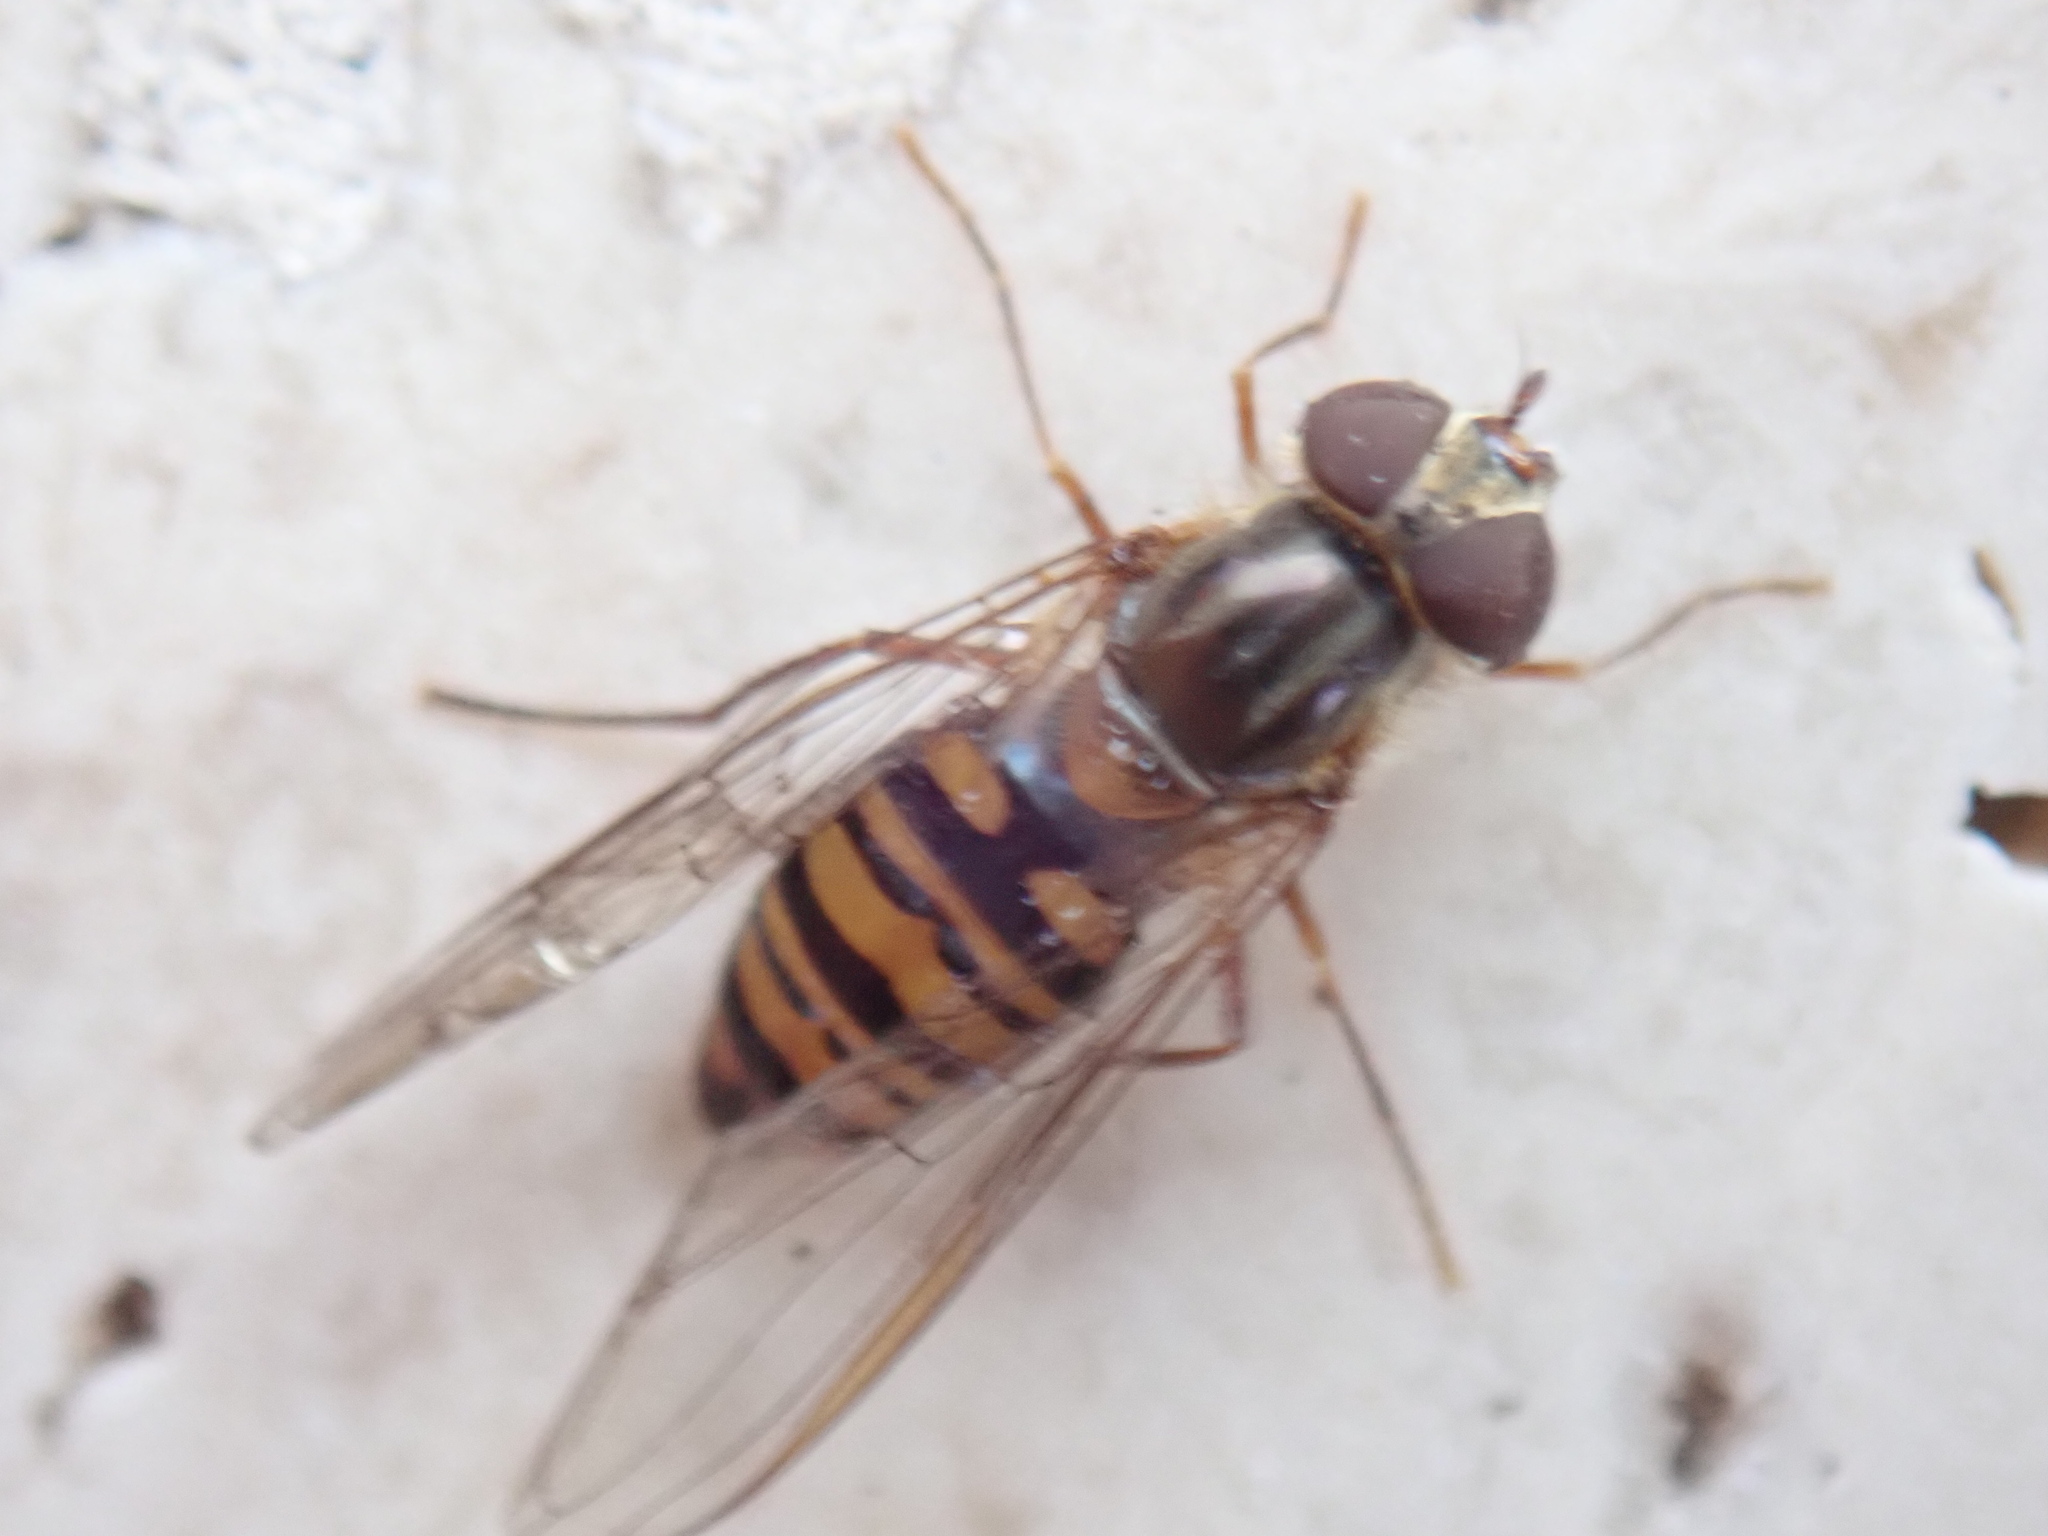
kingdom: Animalia
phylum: Arthropoda
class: Insecta
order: Diptera
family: Syrphidae
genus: Episyrphus
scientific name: Episyrphus balteatus
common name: Marmalade hoverfly
